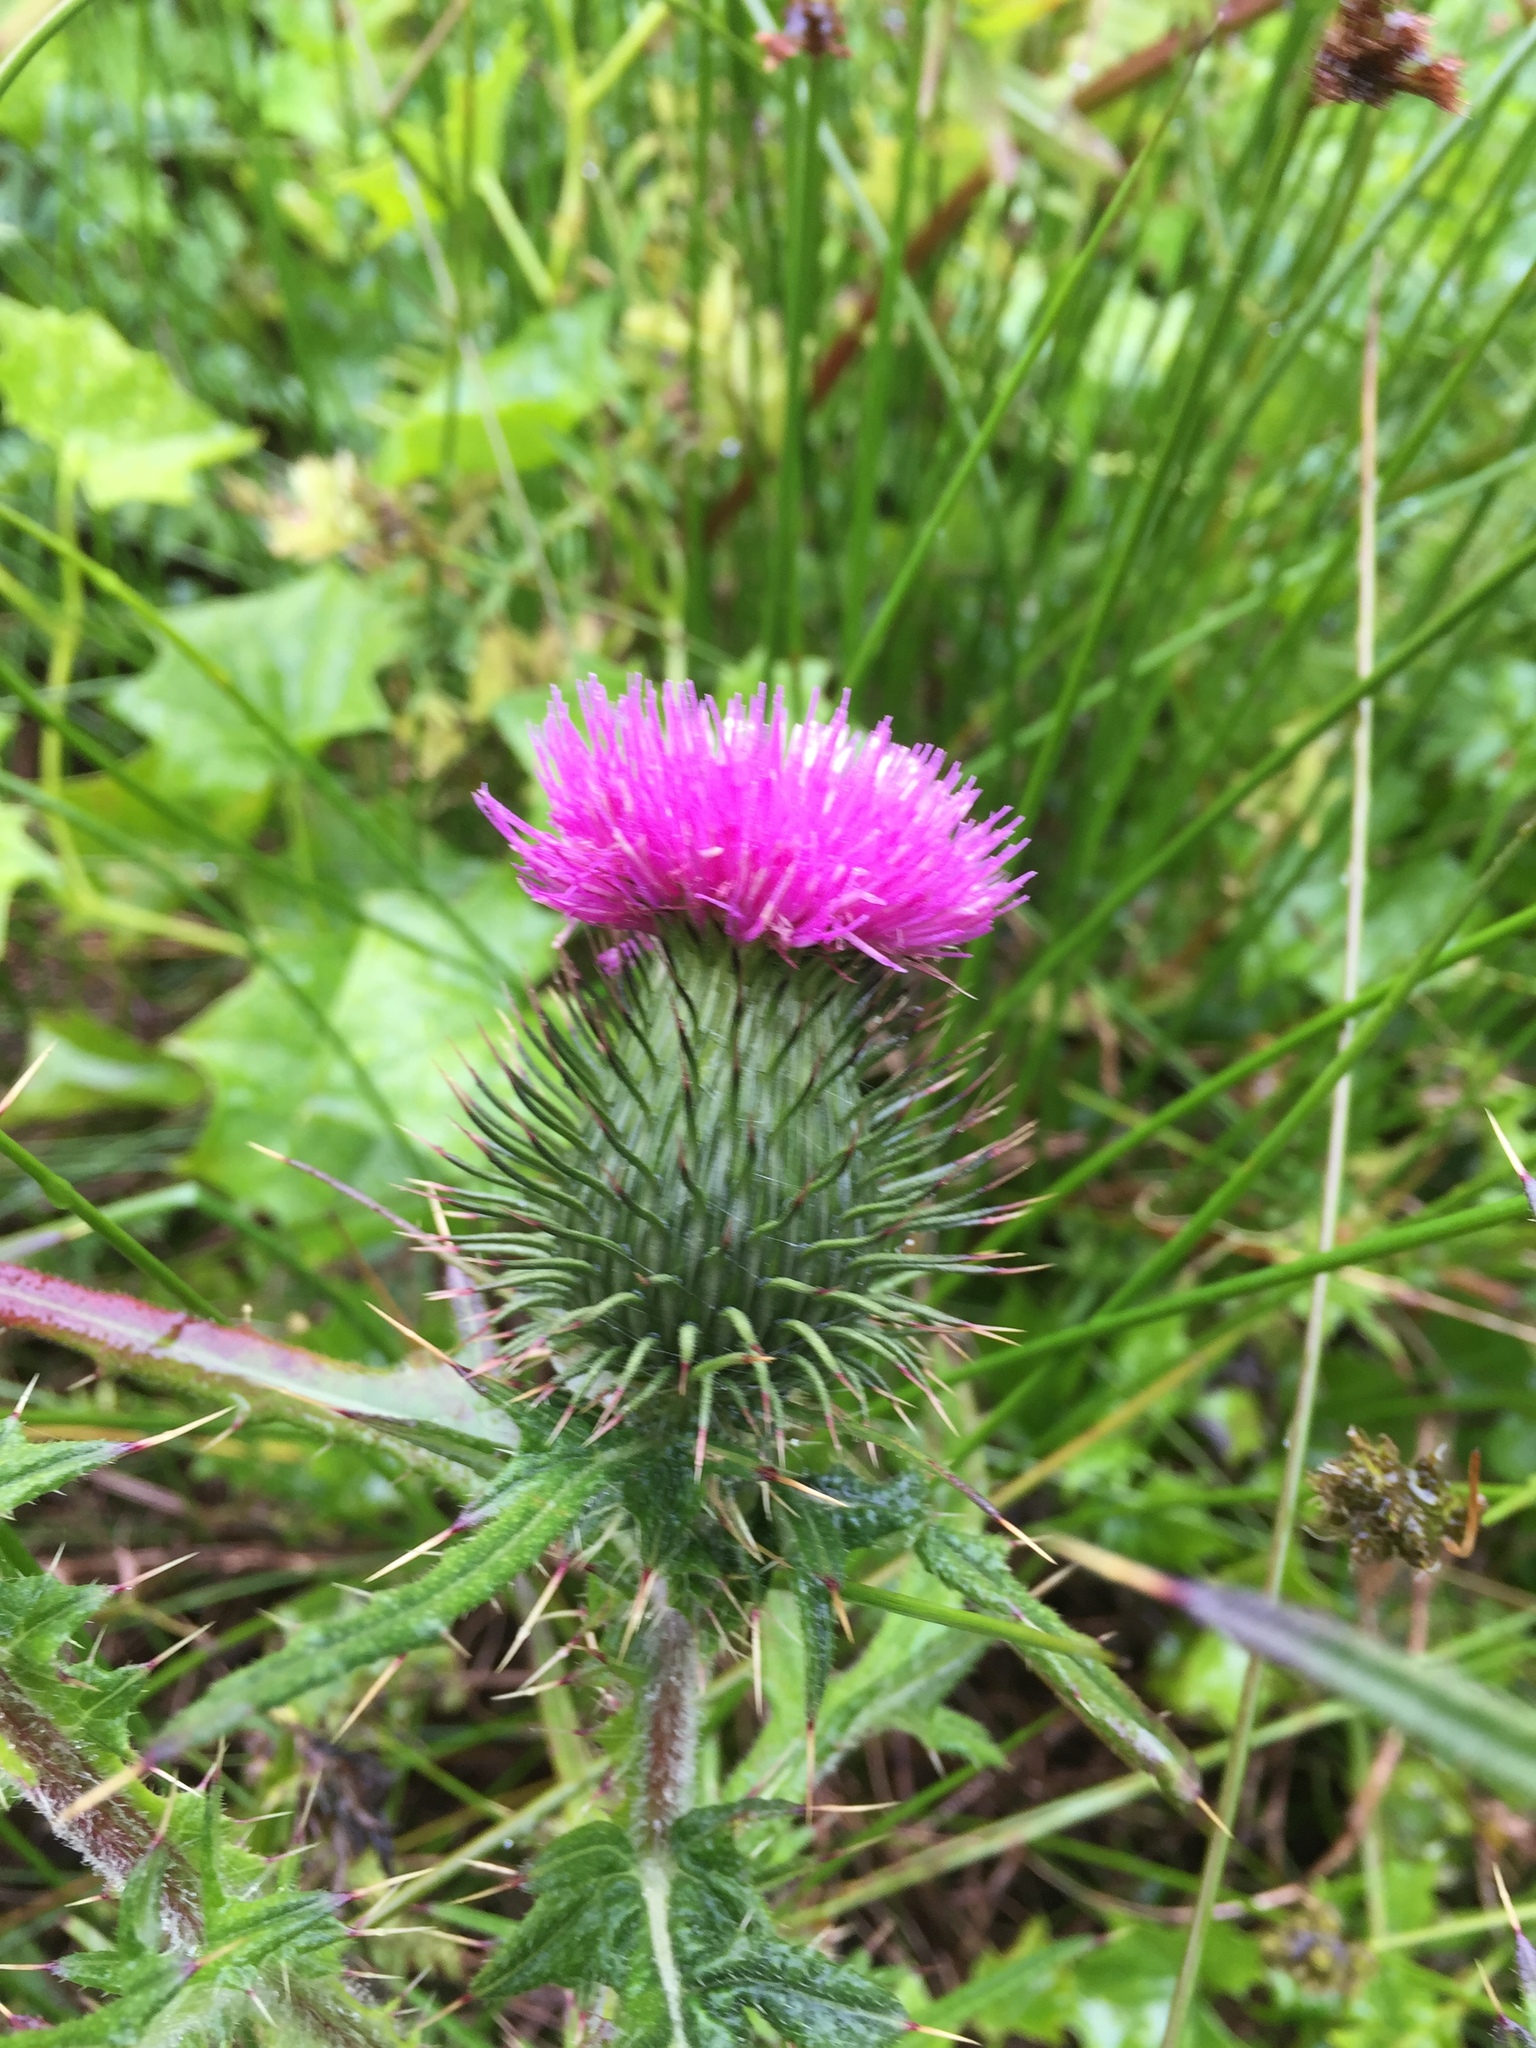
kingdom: Plantae
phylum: Tracheophyta
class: Magnoliopsida
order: Asterales
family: Asteraceae
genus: Cirsium
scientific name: Cirsium vulgare
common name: Bull thistle
